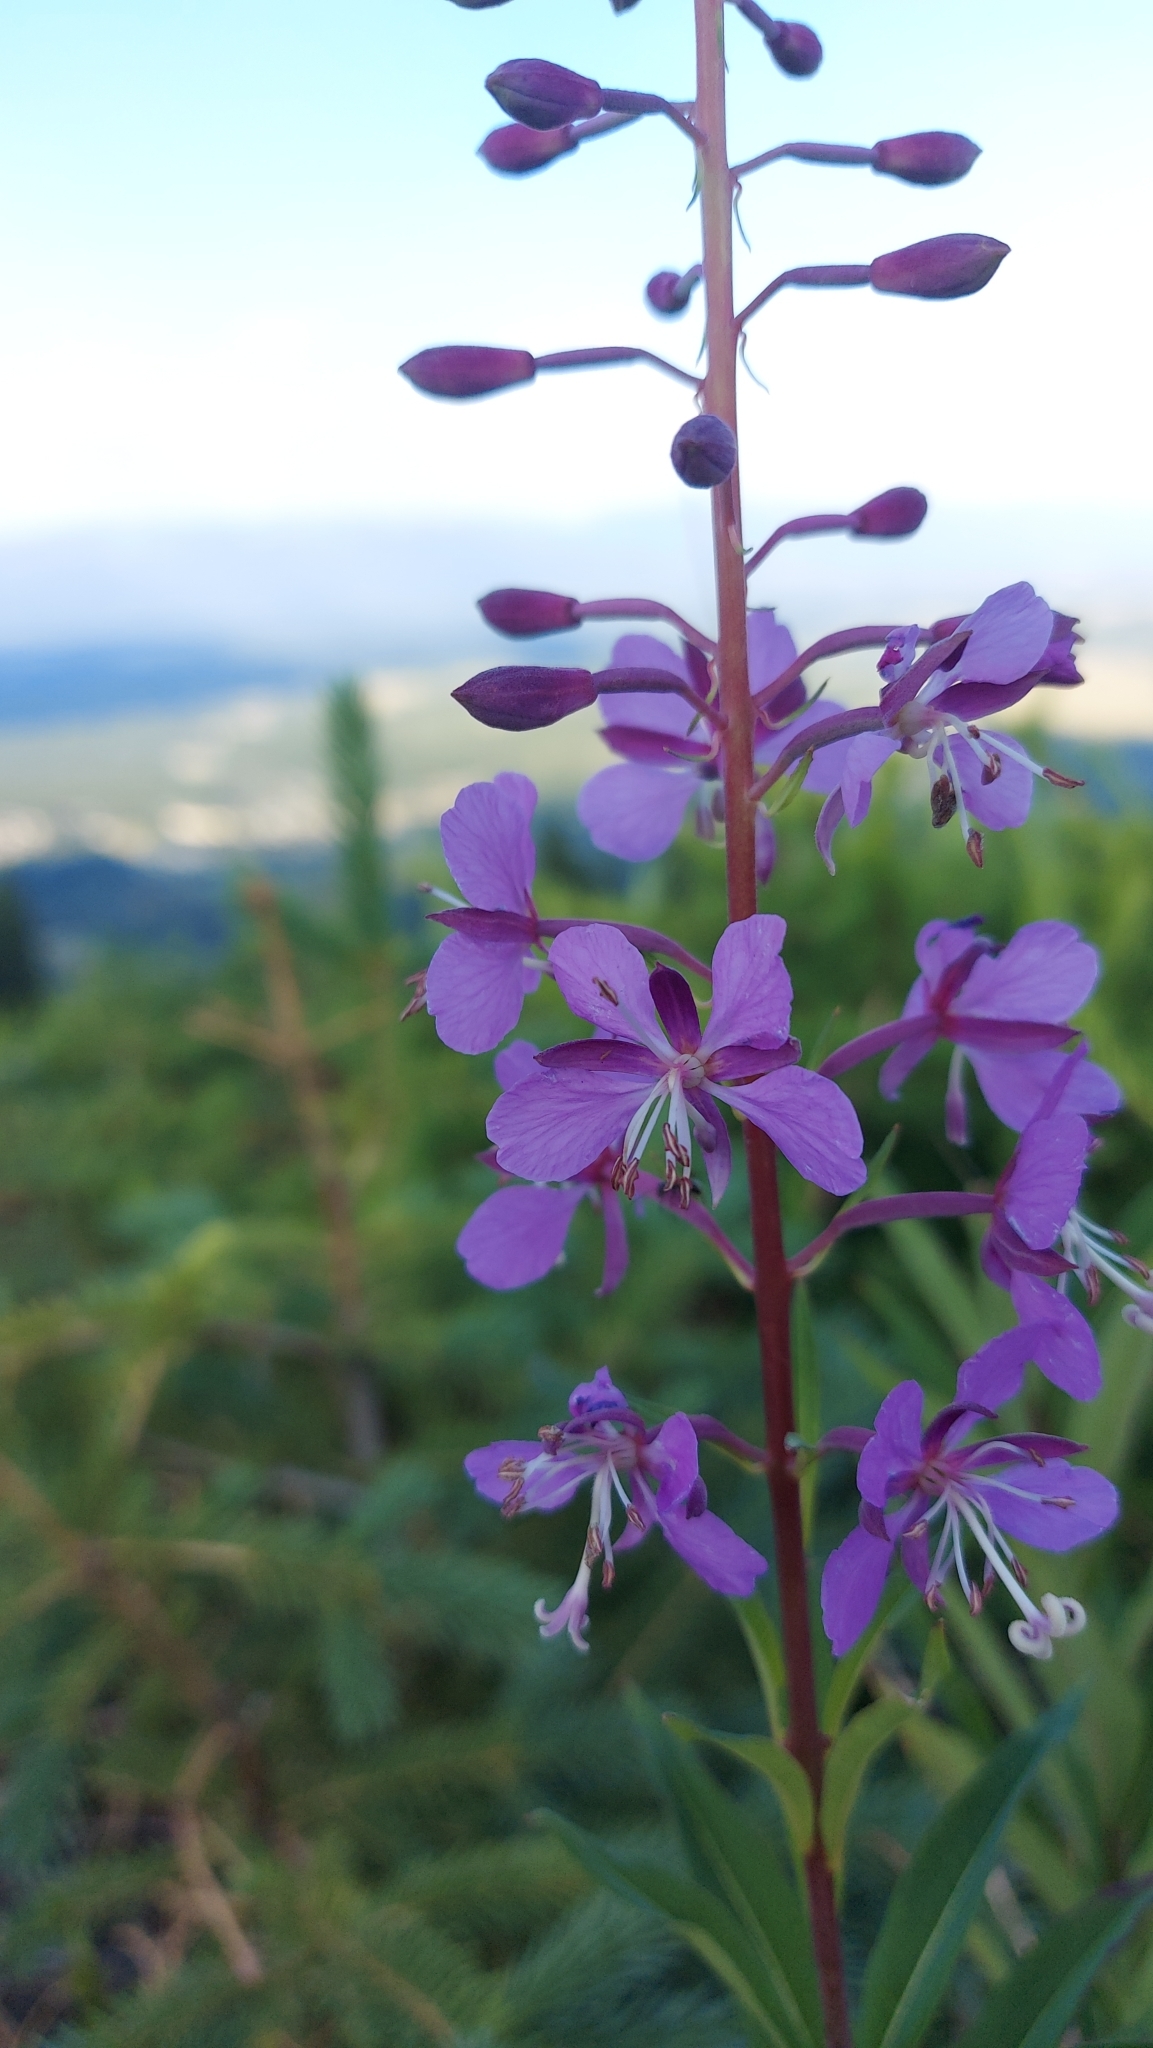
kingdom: Plantae
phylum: Tracheophyta
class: Magnoliopsida
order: Myrtales
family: Onagraceae
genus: Chamaenerion
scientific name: Chamaenerion angustifolium
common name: Fireweed
